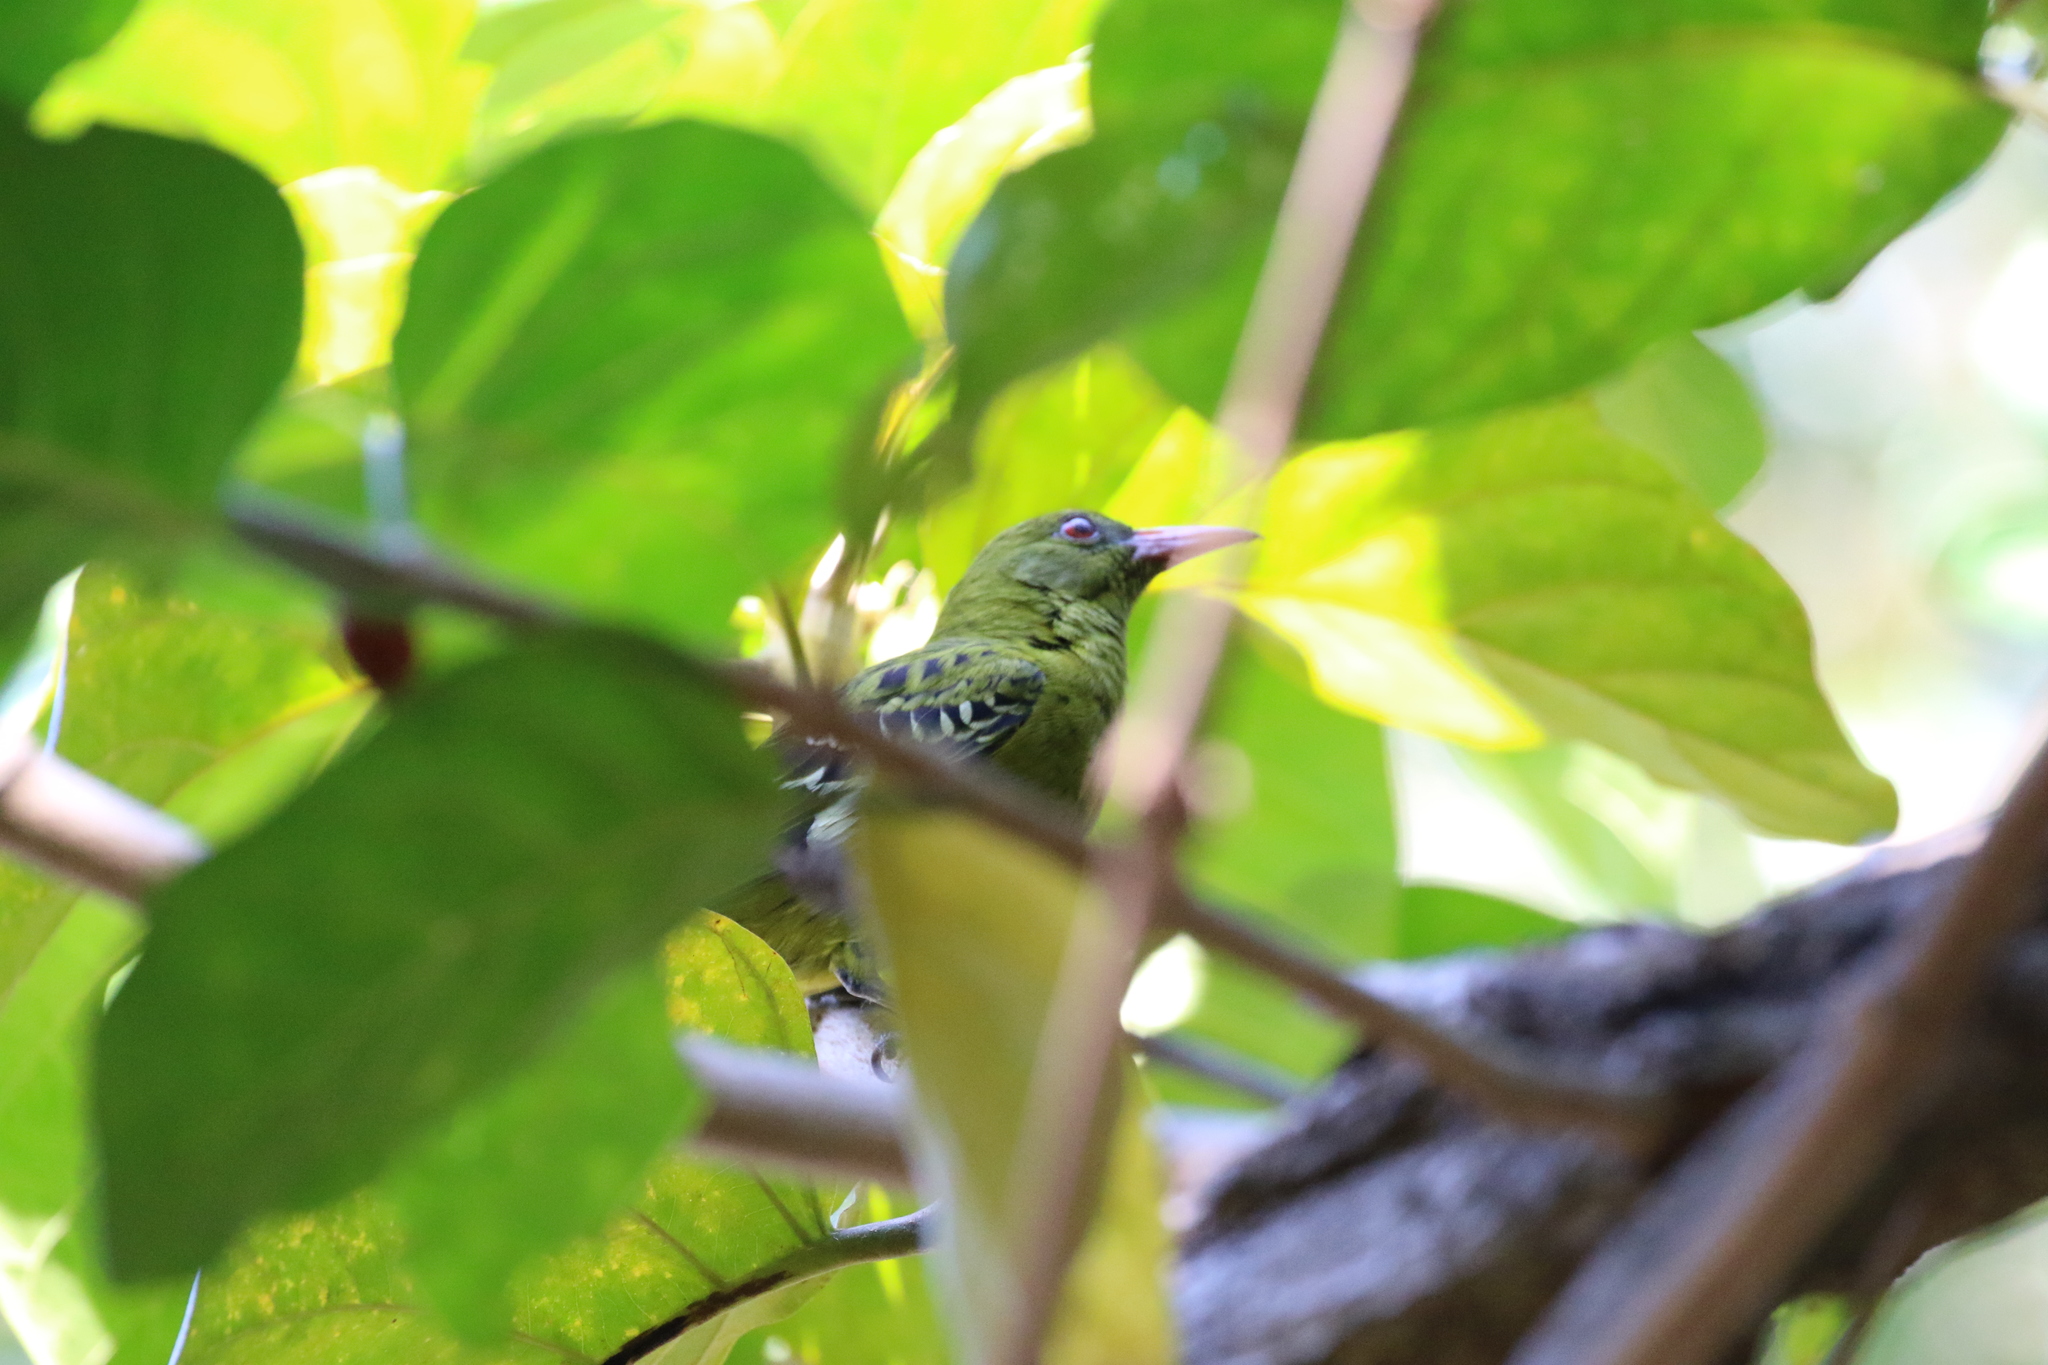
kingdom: Animalia
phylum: Chordata
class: Aves
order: Passeriformes
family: Oriolidae
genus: Oriolus
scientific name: Oriolus flavocinctus
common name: Green oriole
